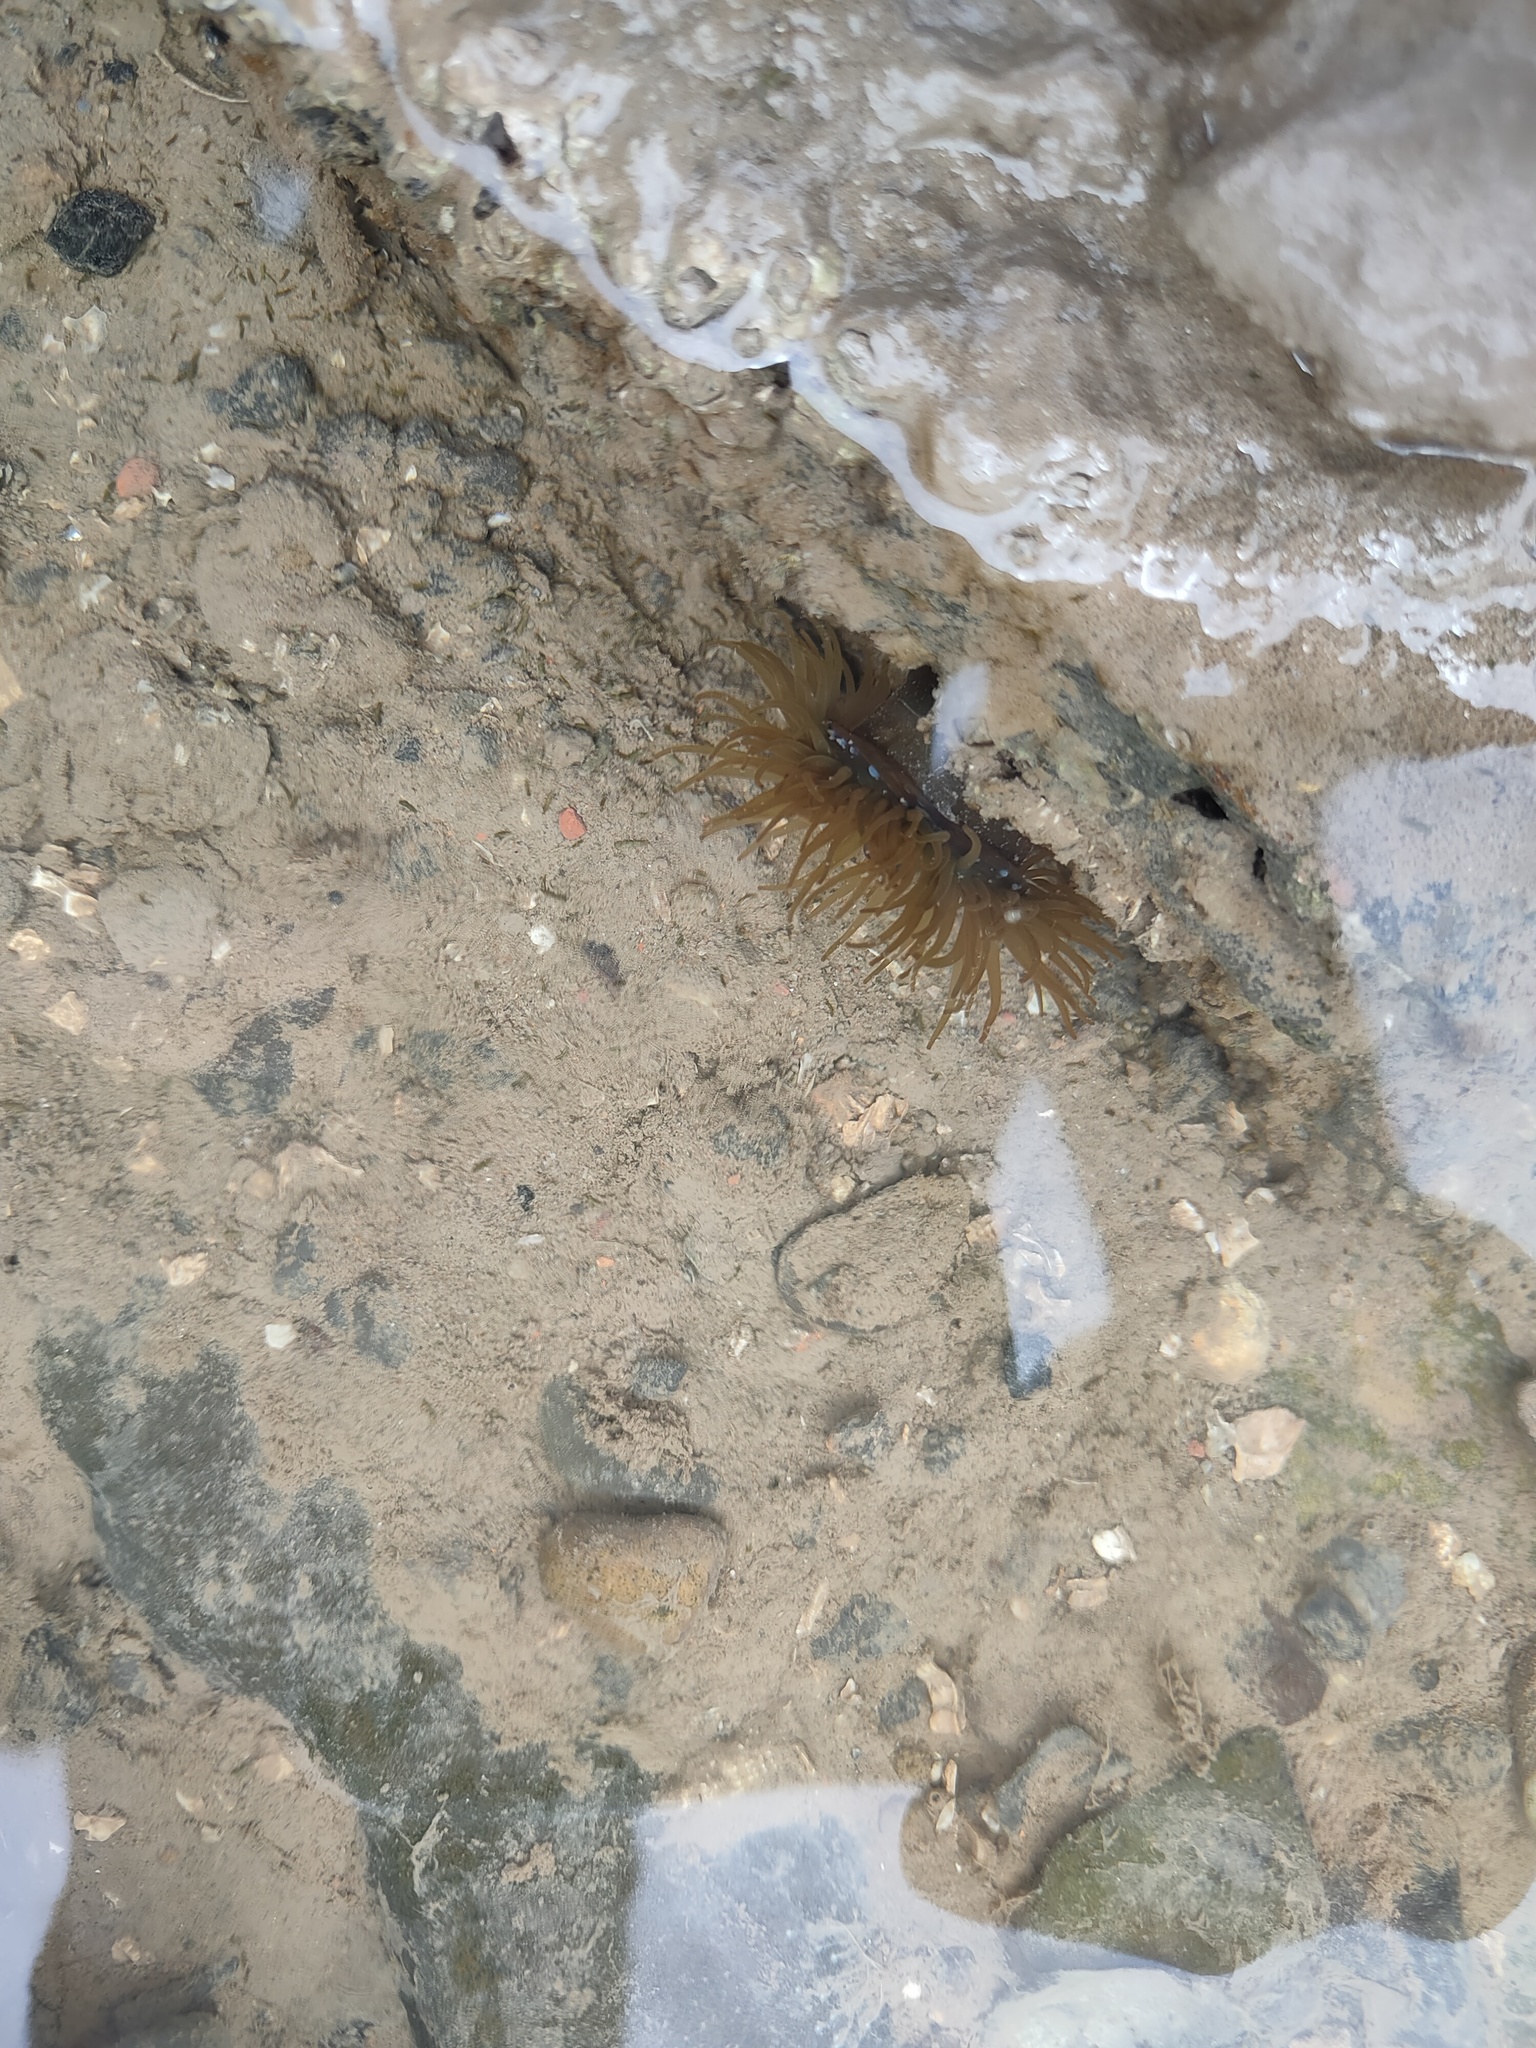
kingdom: Animalia
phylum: Cnidaria
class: Anthozoa
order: Actiniaria
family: Actiniidae
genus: Actinia
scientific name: Actinia equina
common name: Beadlet anemone
